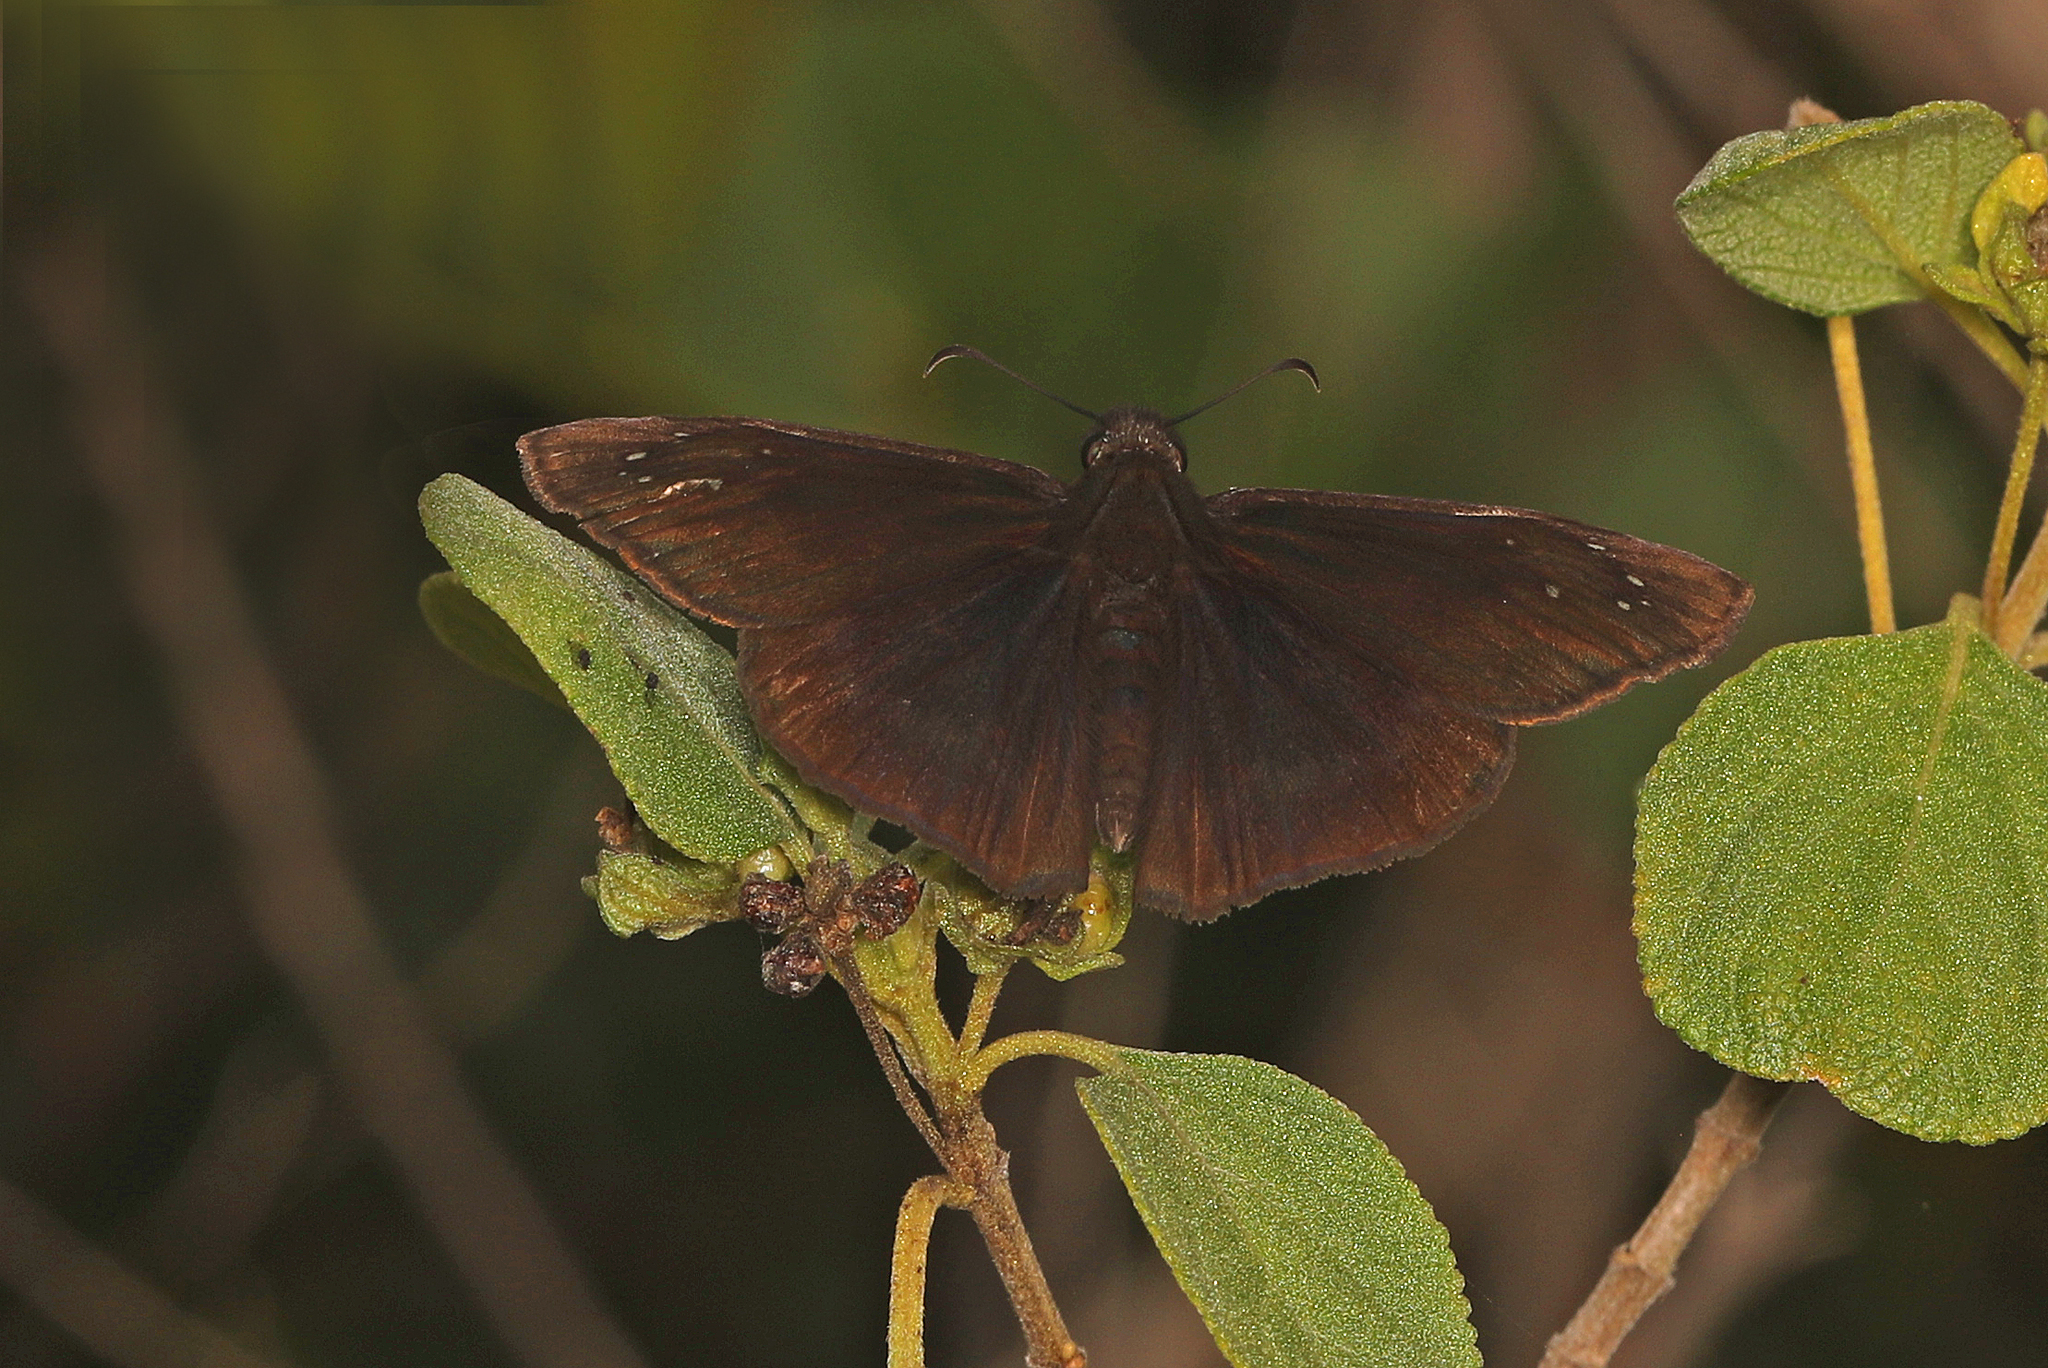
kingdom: Animalia
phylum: Arthropoda
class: Insecta
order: Lepidoptera
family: Hesperiidae
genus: Ephyriades
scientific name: Ephyriades brunnea
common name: Florida duskywing
